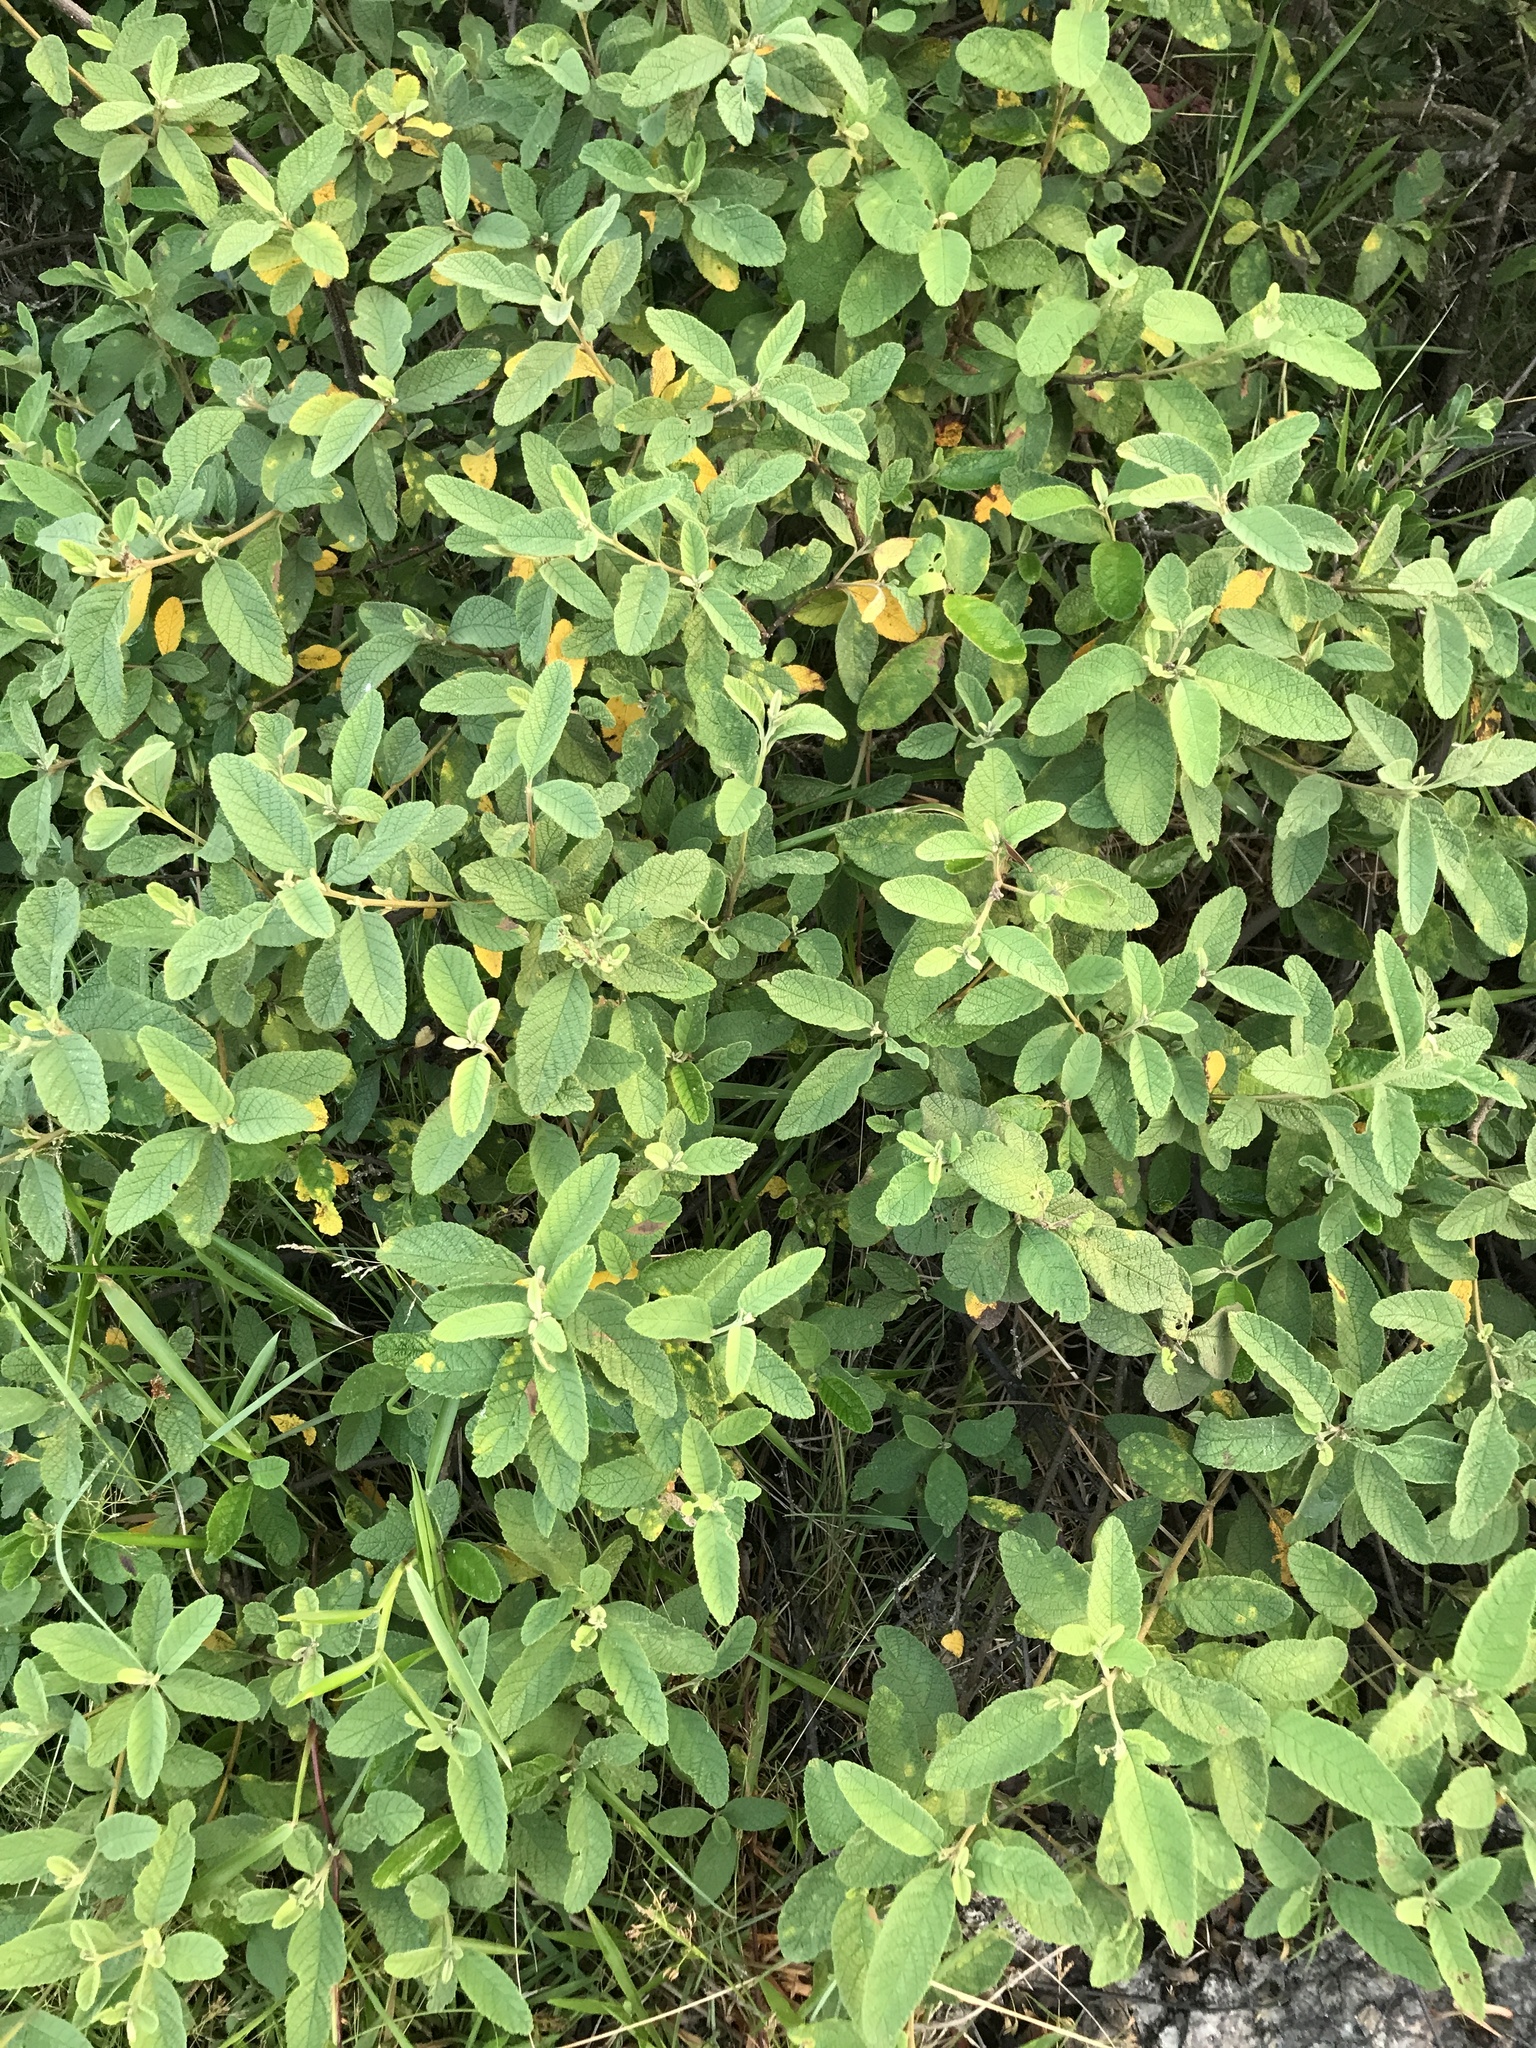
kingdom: Plantae
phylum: Tracheophyta
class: Magnoliopsida
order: Boraginales
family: Cordiaceae
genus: Varronia
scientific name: Varronia curassavica
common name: Black sage
